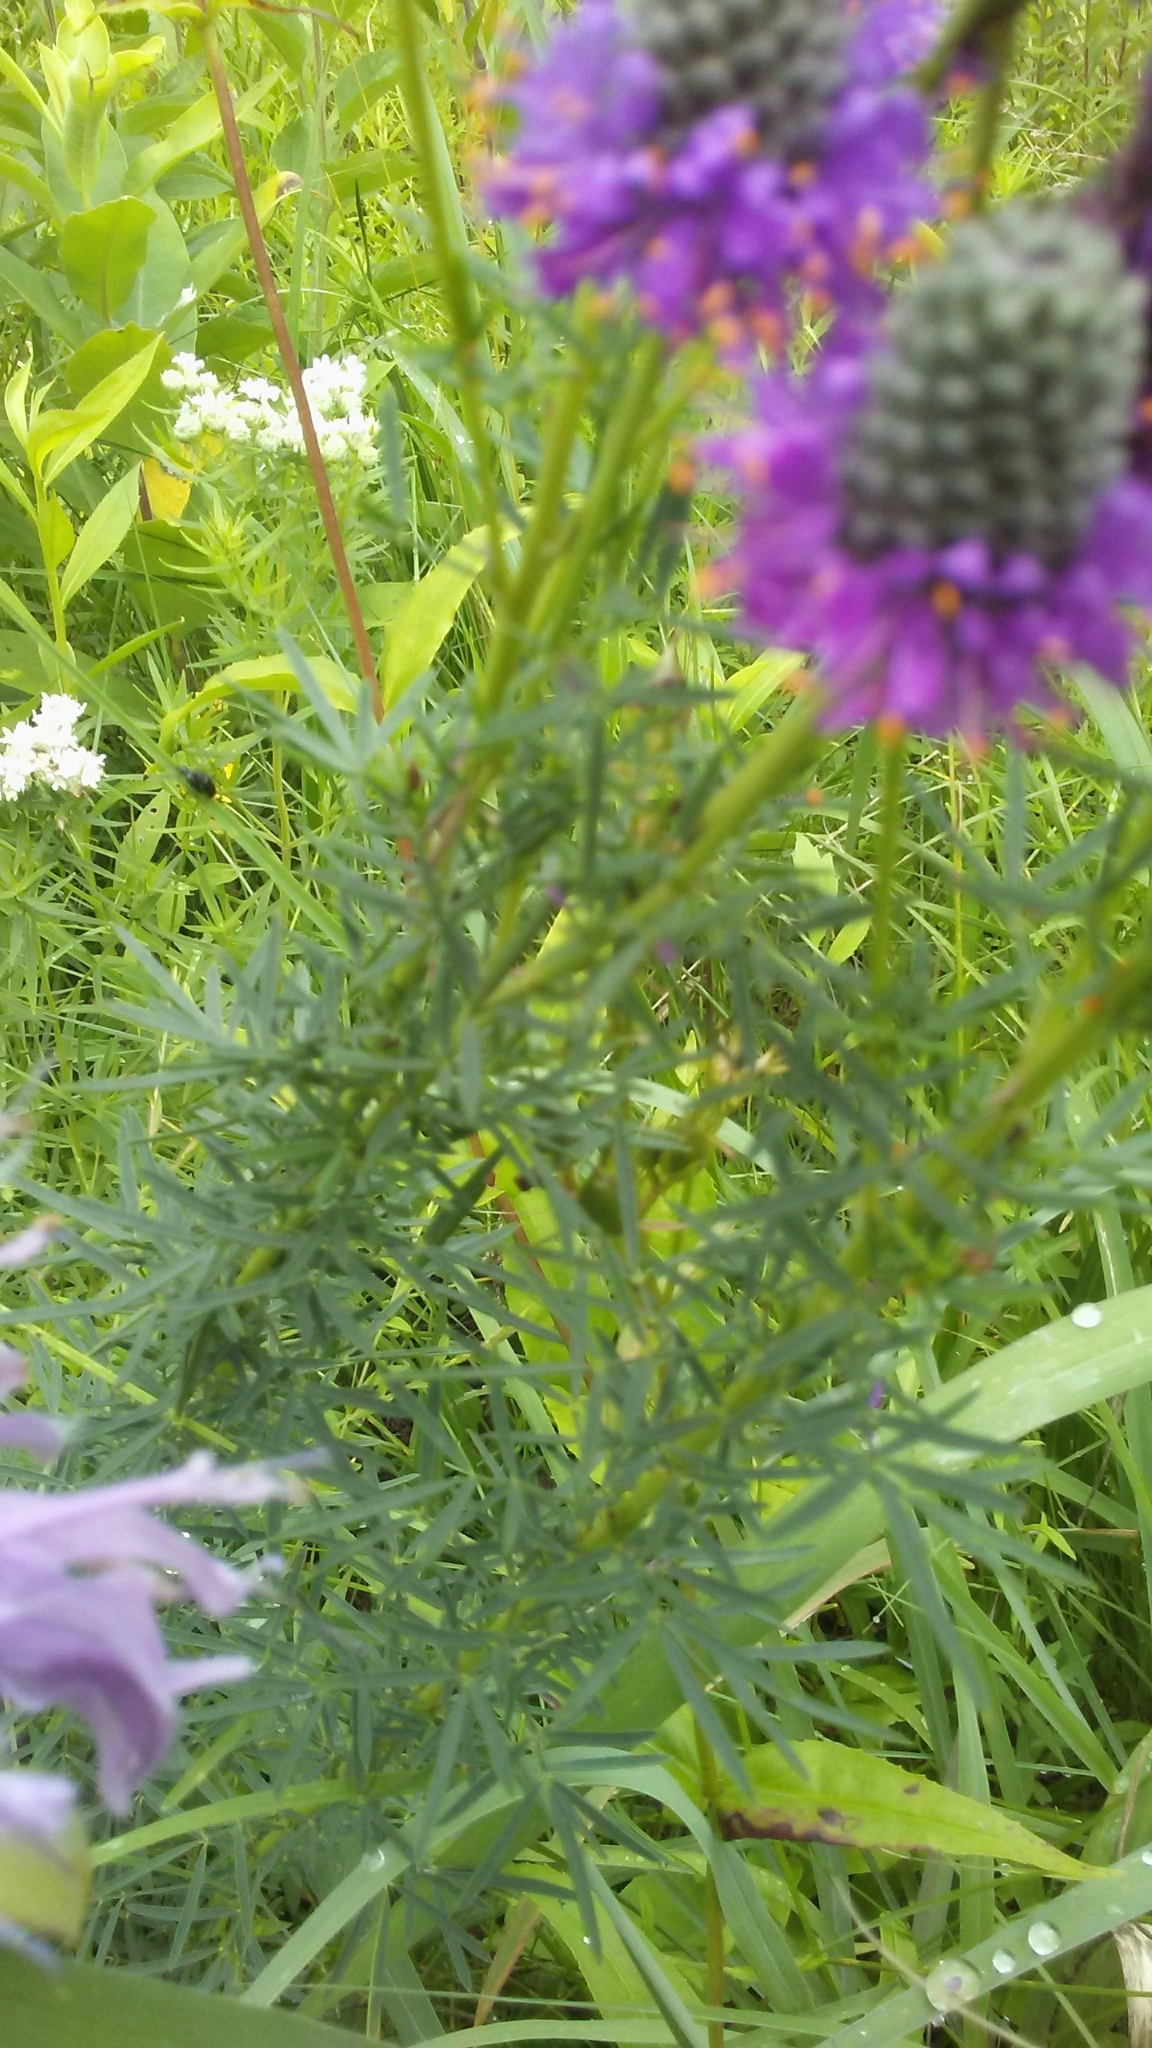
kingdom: Plantae
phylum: Tracheophyta
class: Magnoliopsida
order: Fabales
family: Fabaceae
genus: Dalea
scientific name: Dalea purpurea
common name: Purple prairie-clover
